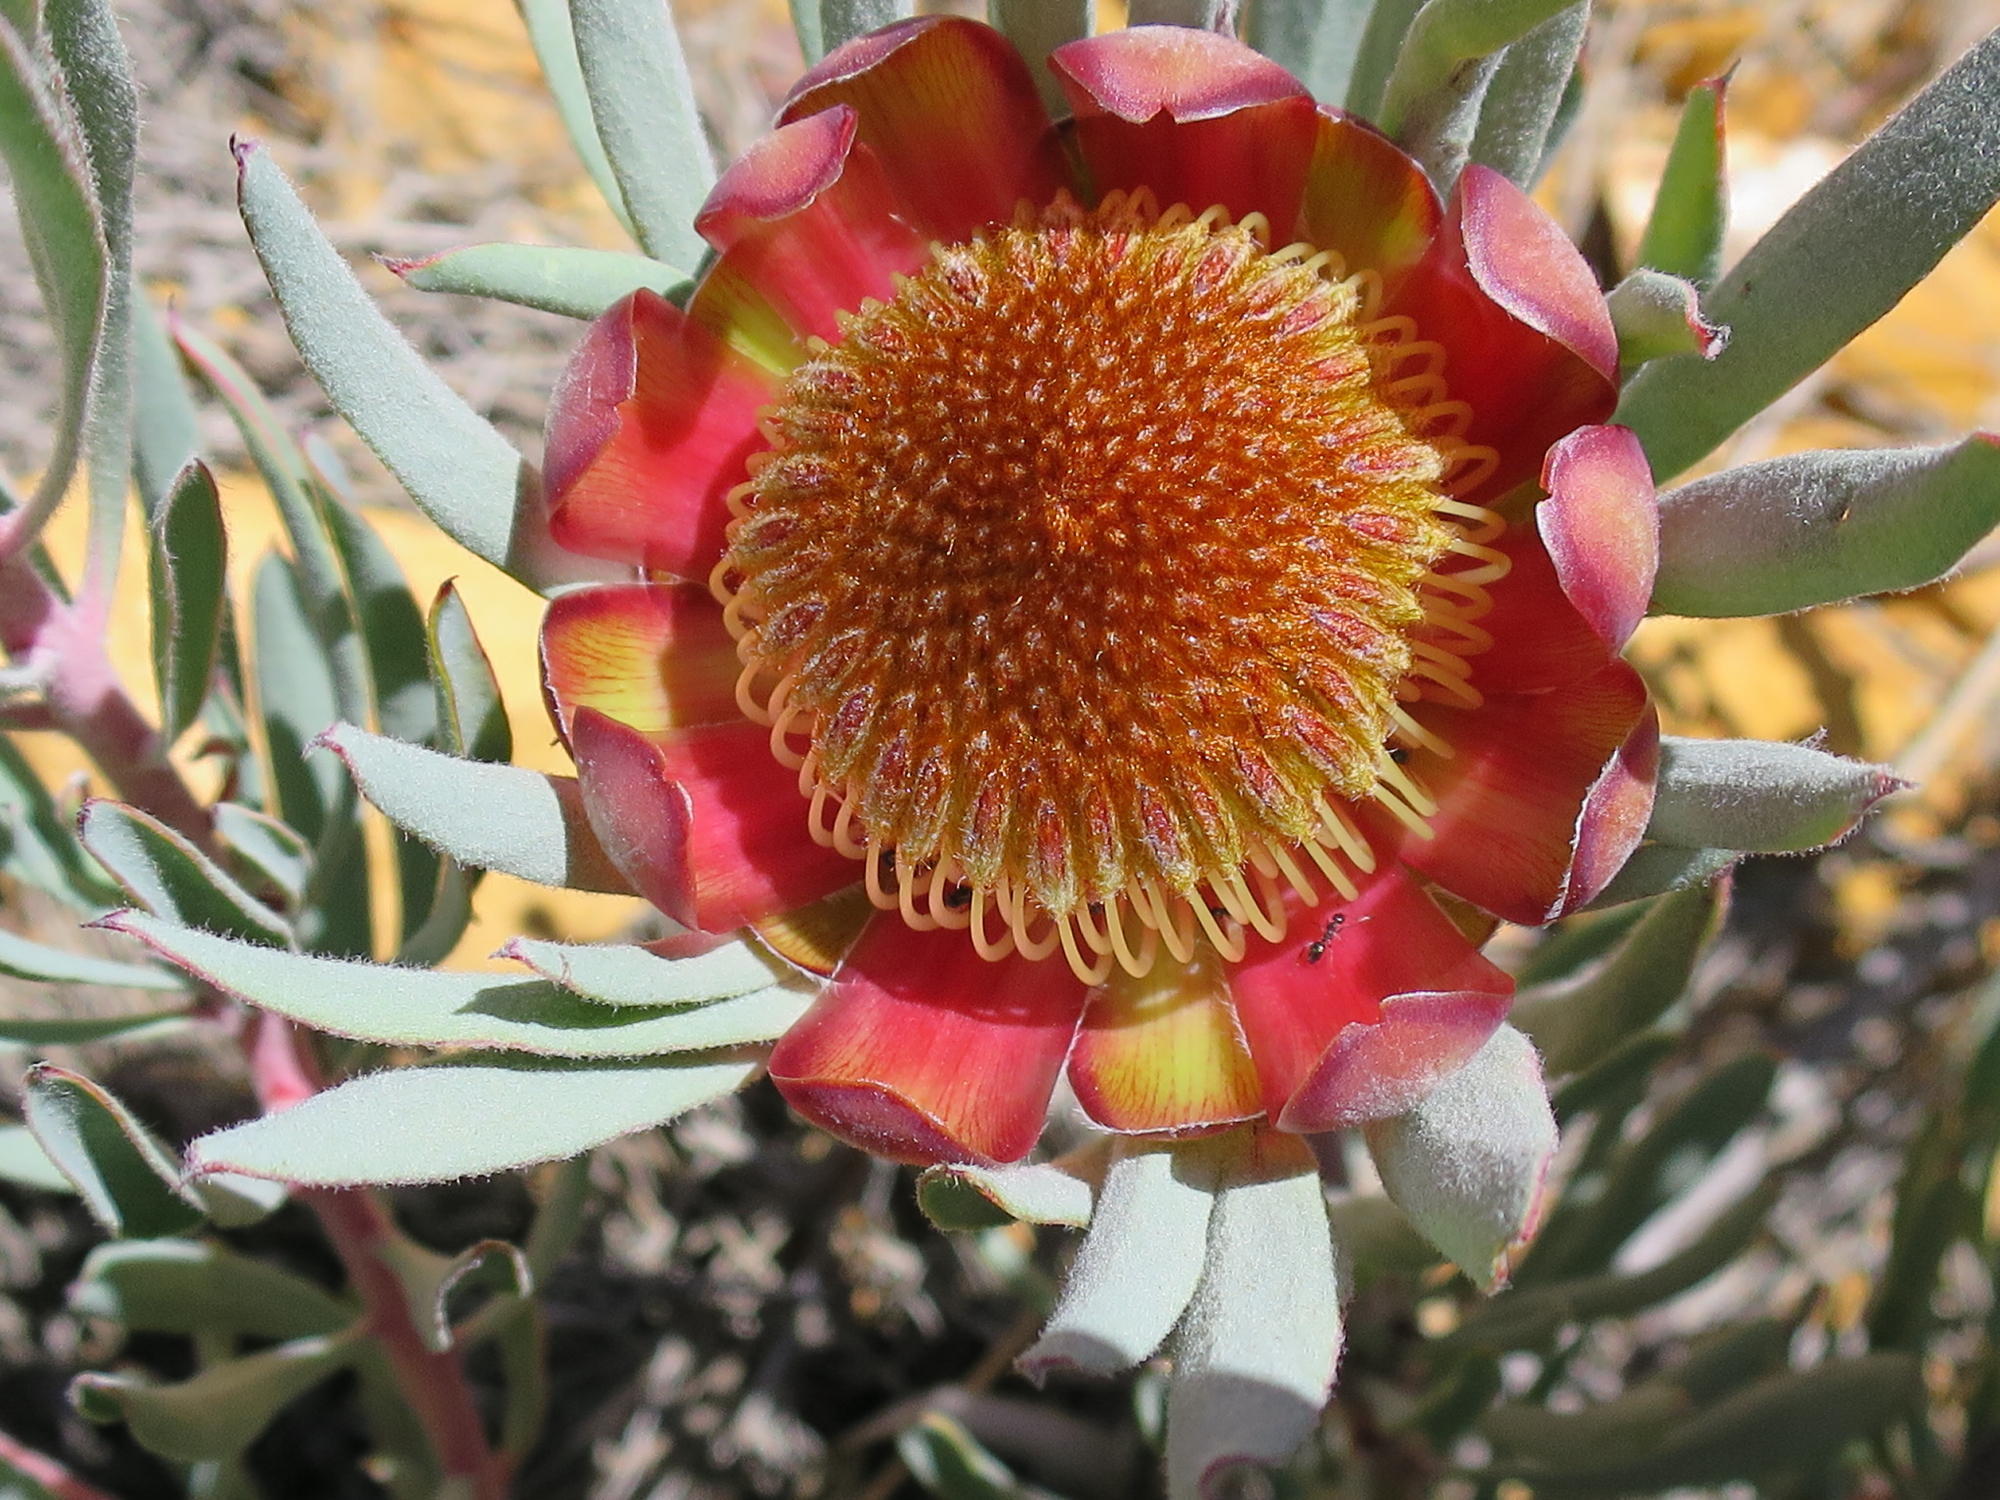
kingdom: Plantae
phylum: Tracheophyta
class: Magnoliopsida
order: Proteales
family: Proteaceae
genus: Protea
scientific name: Protea canaliculata
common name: Groove-leaf sugarbush
